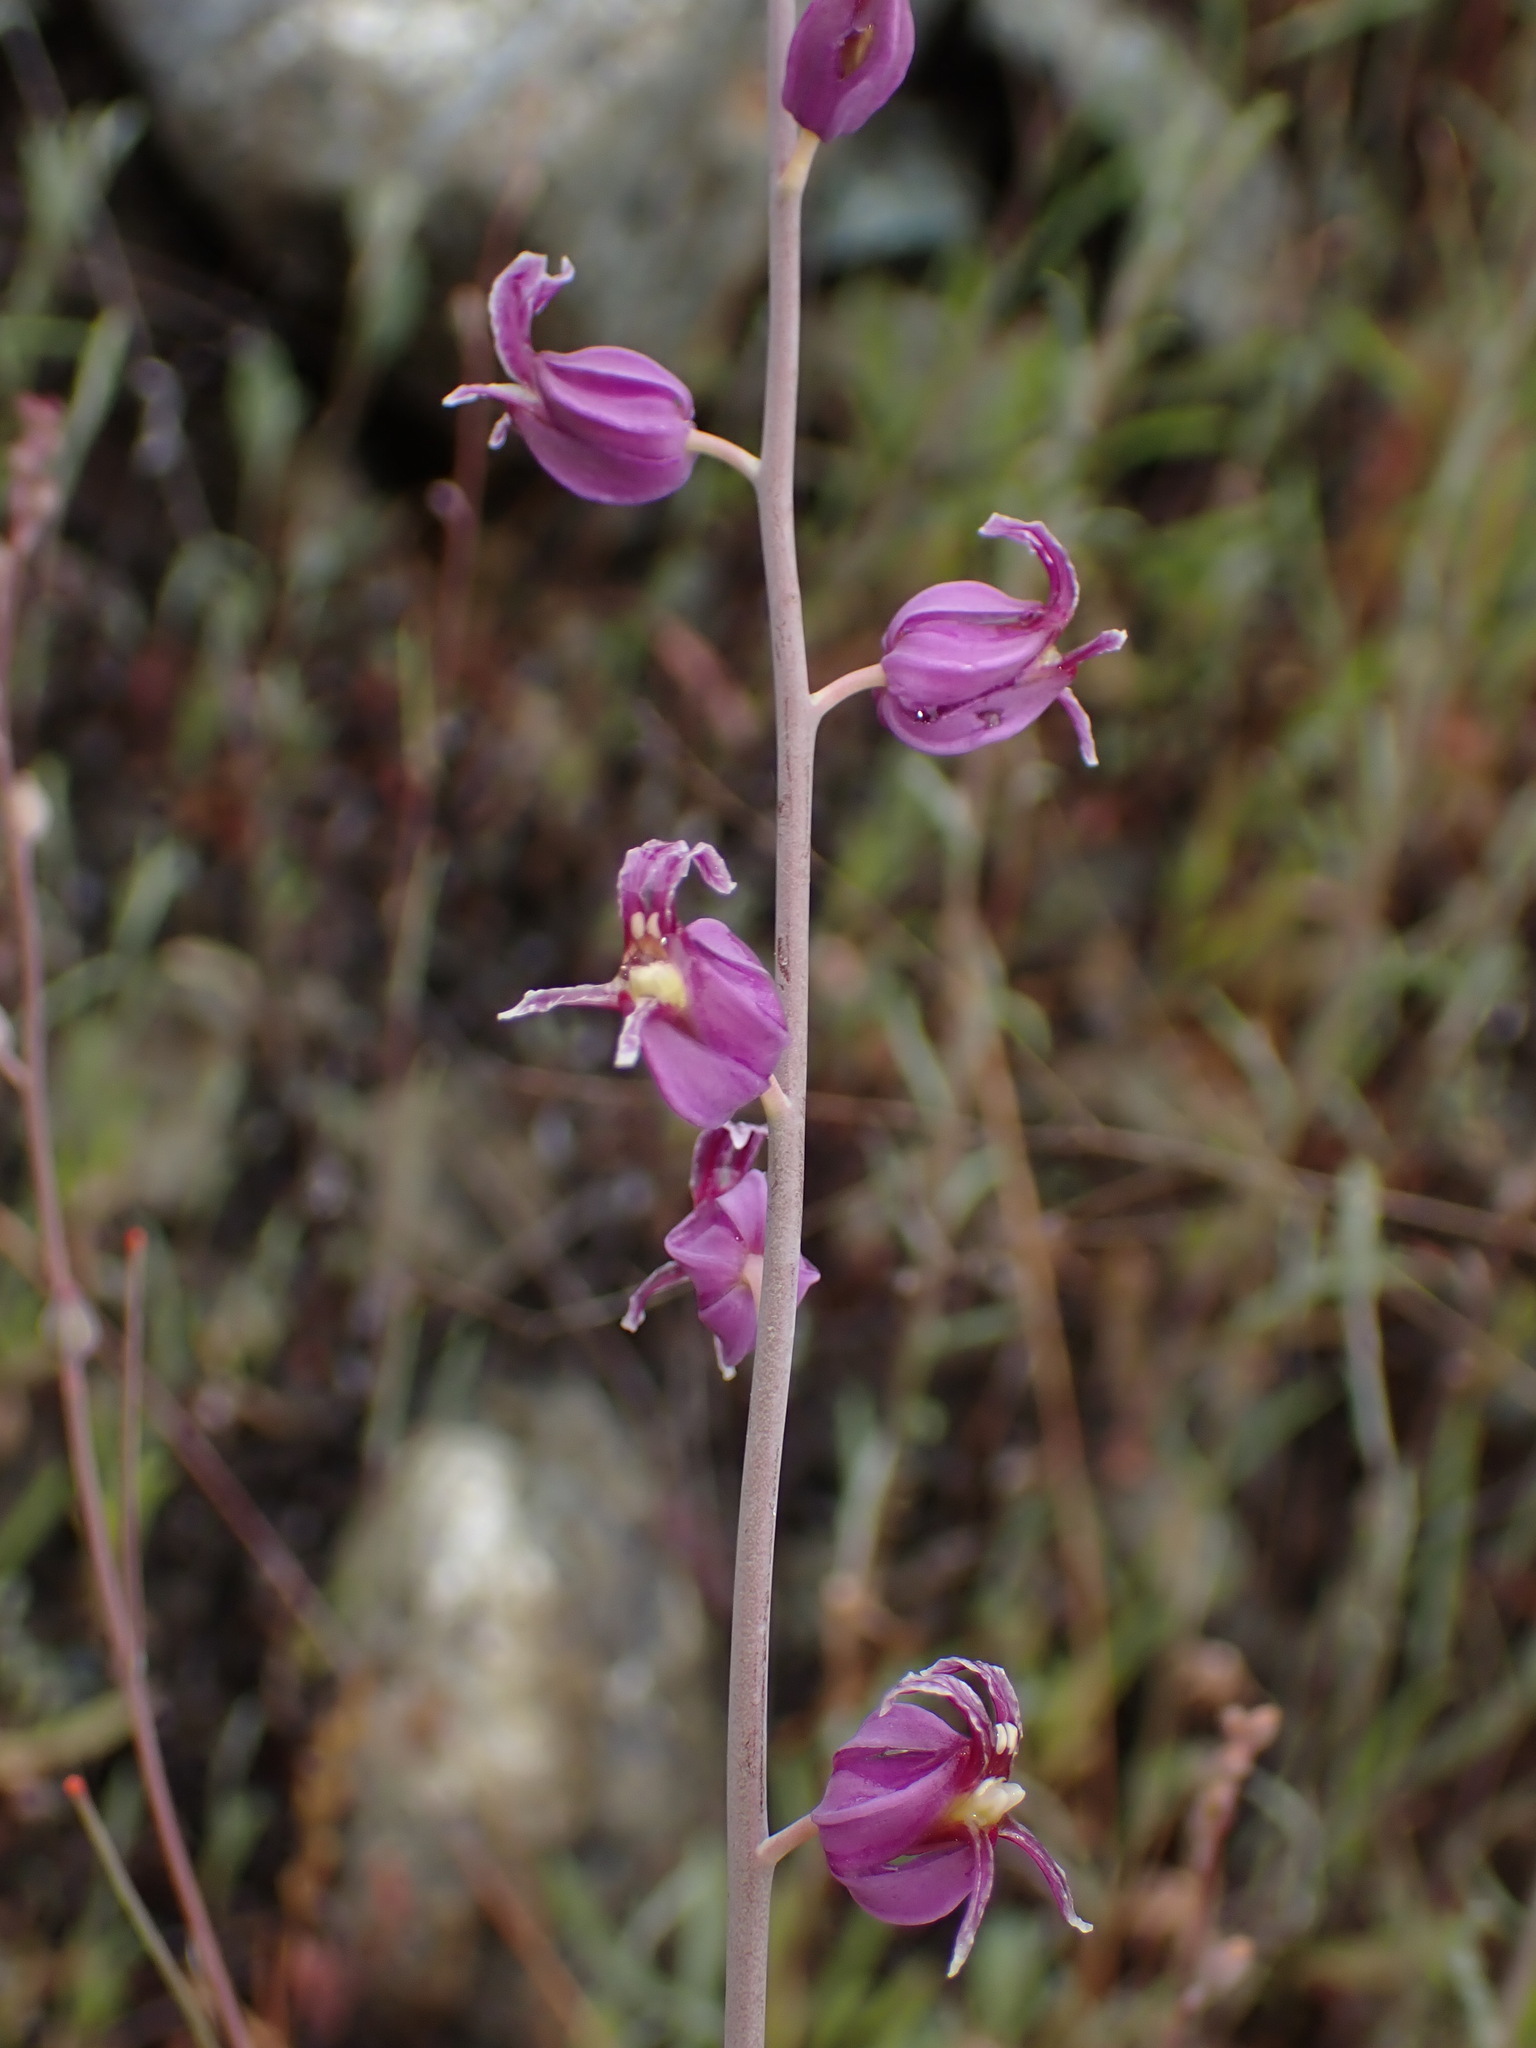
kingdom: Plantae
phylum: Tracheophyta
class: Magnoliopsida
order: Brassicales
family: Brassicaceae
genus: Streptanthus
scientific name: Streptanthus glandulosus
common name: Jewel-flower
